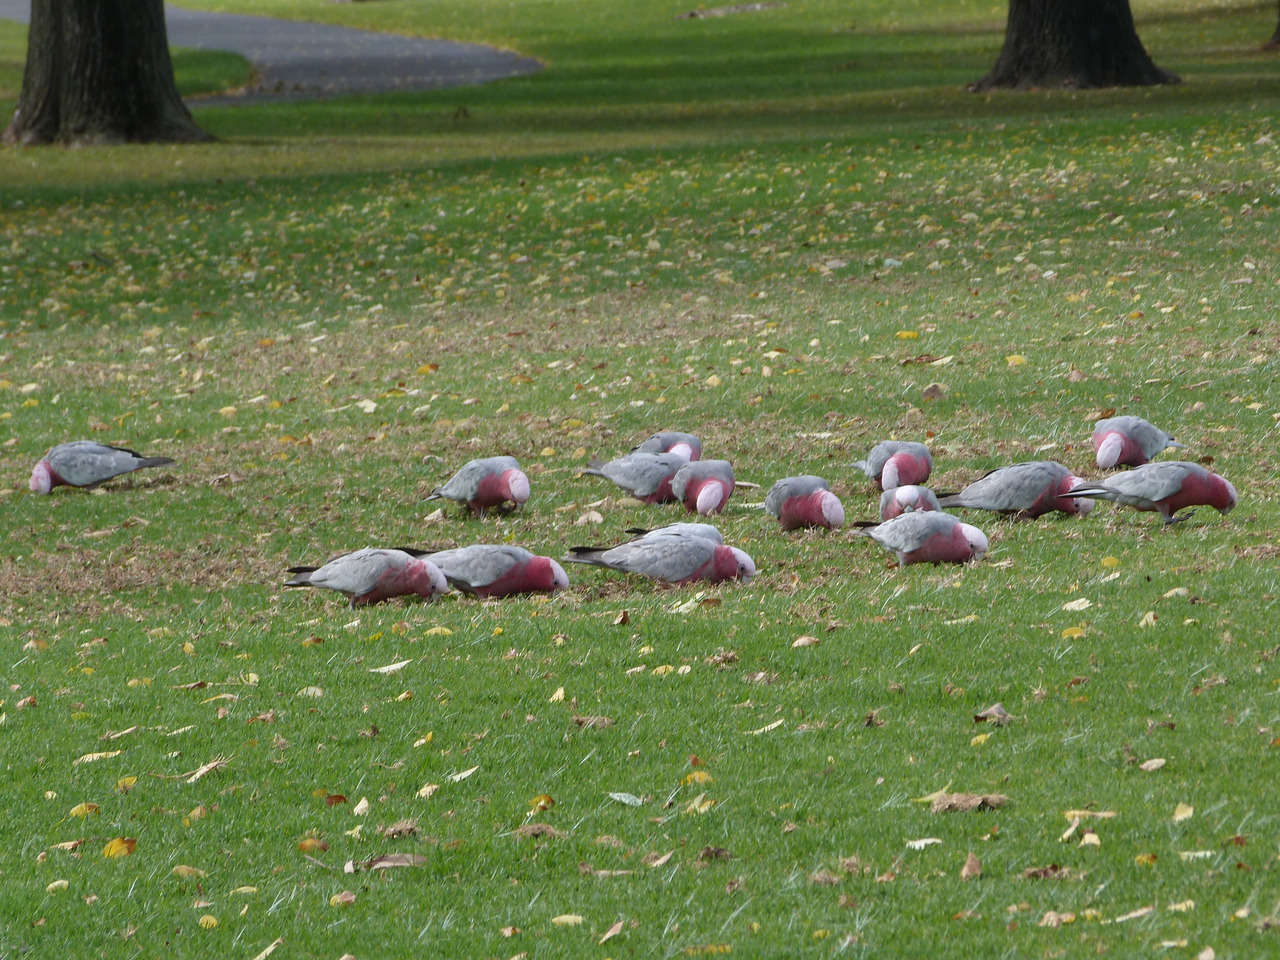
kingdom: Animalia
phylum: Chordata
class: Aves
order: Psittaciformes
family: Psittacidae
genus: Eolophus
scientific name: Eolophus roseicapilla
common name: Galah
